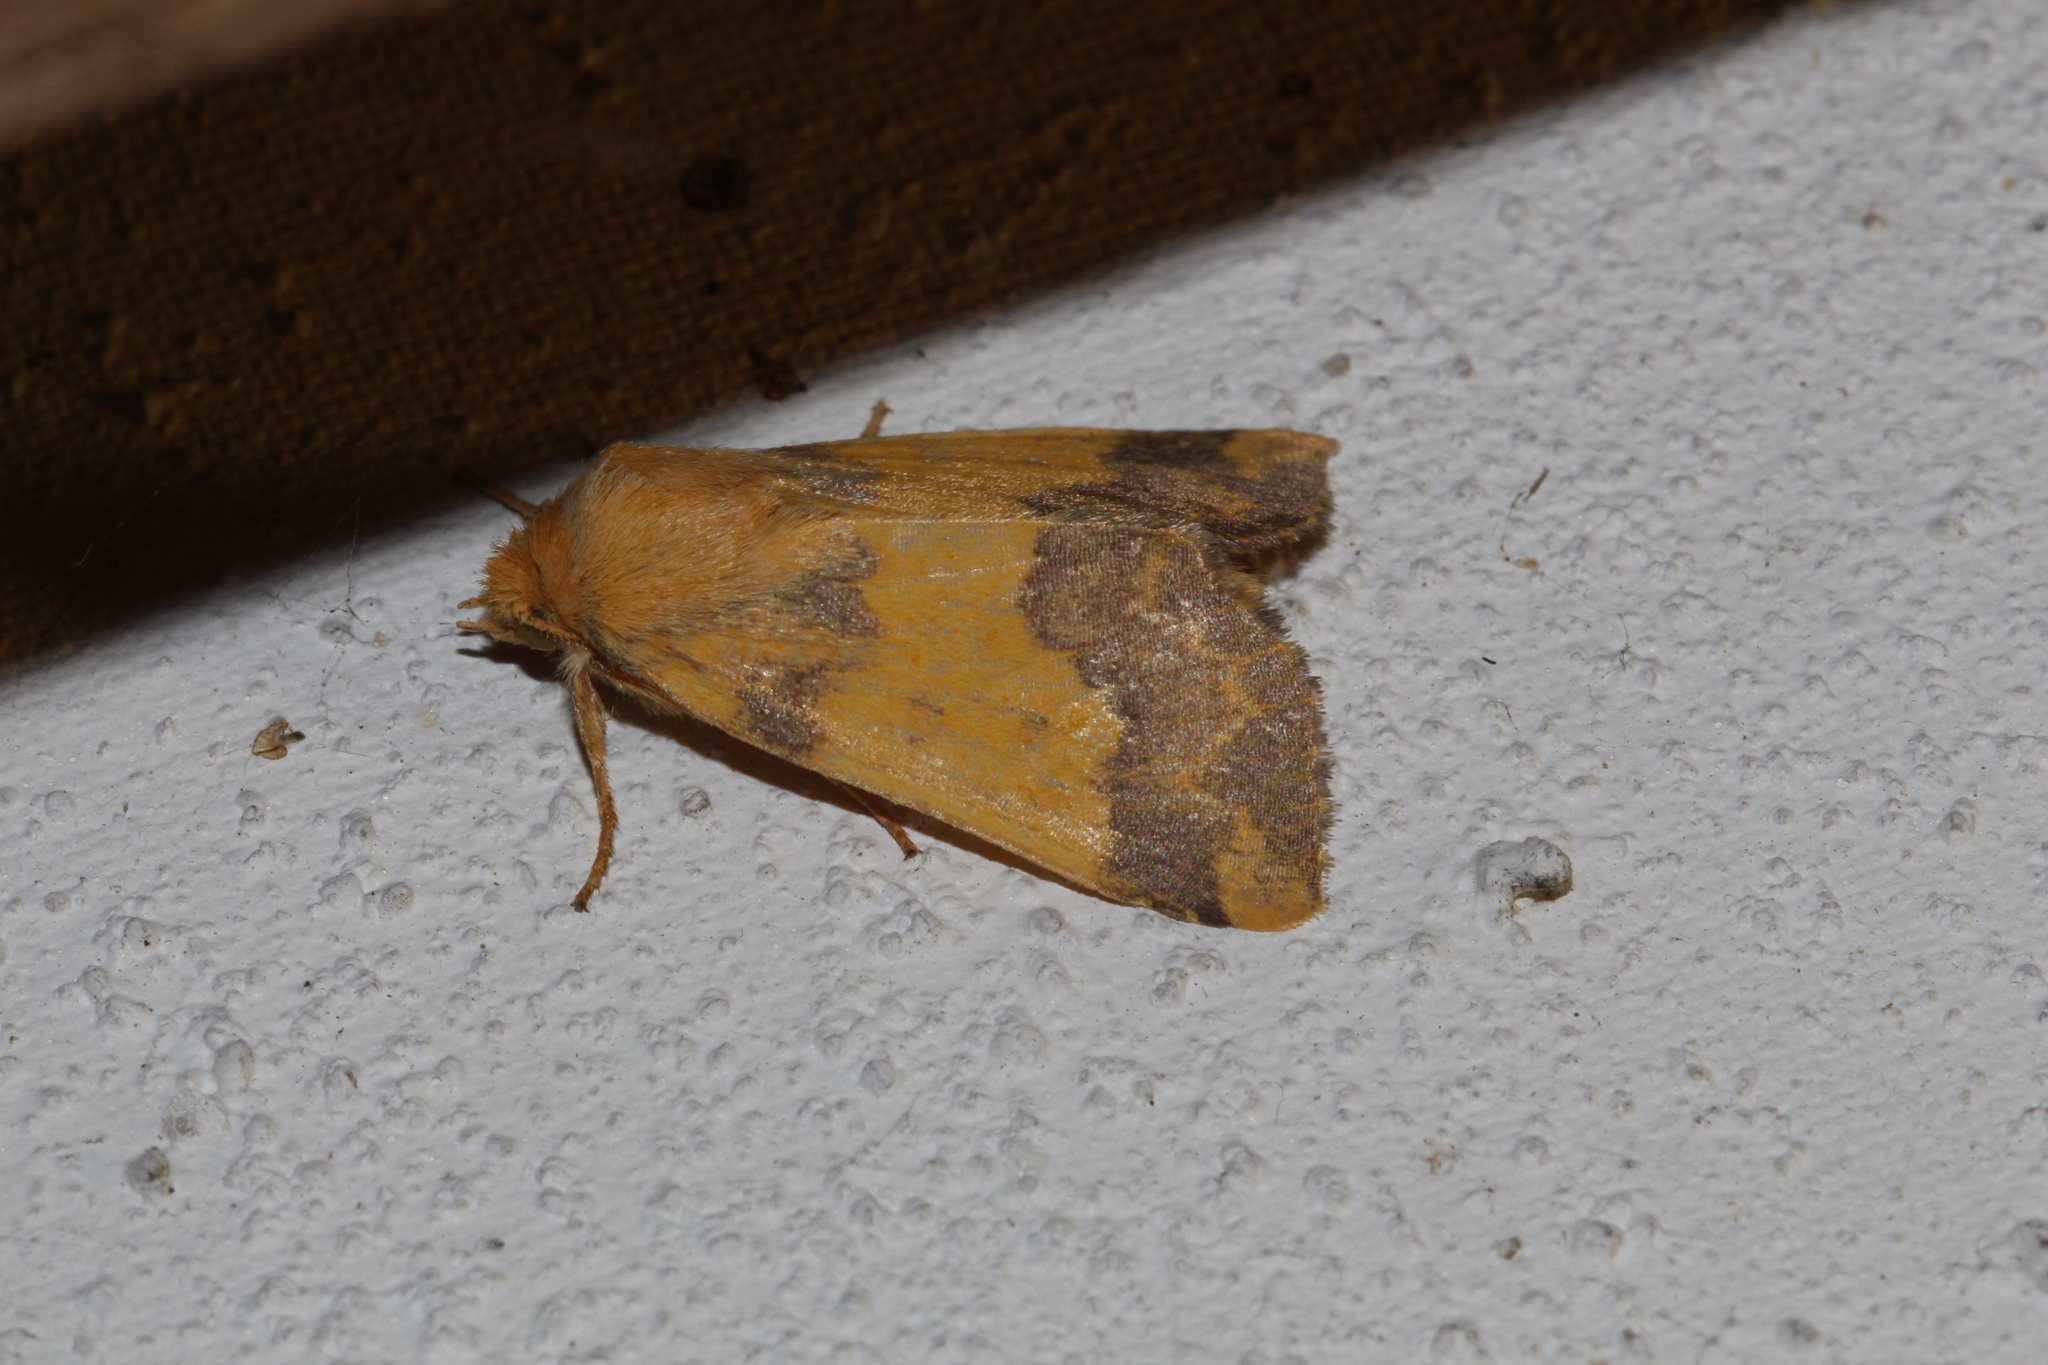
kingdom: Animalia
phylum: Arthropoda
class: Insecta
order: Lepidoptera
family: Noctuidae
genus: Tiliacea
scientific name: Tiliacea aurago
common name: Barred sallow
